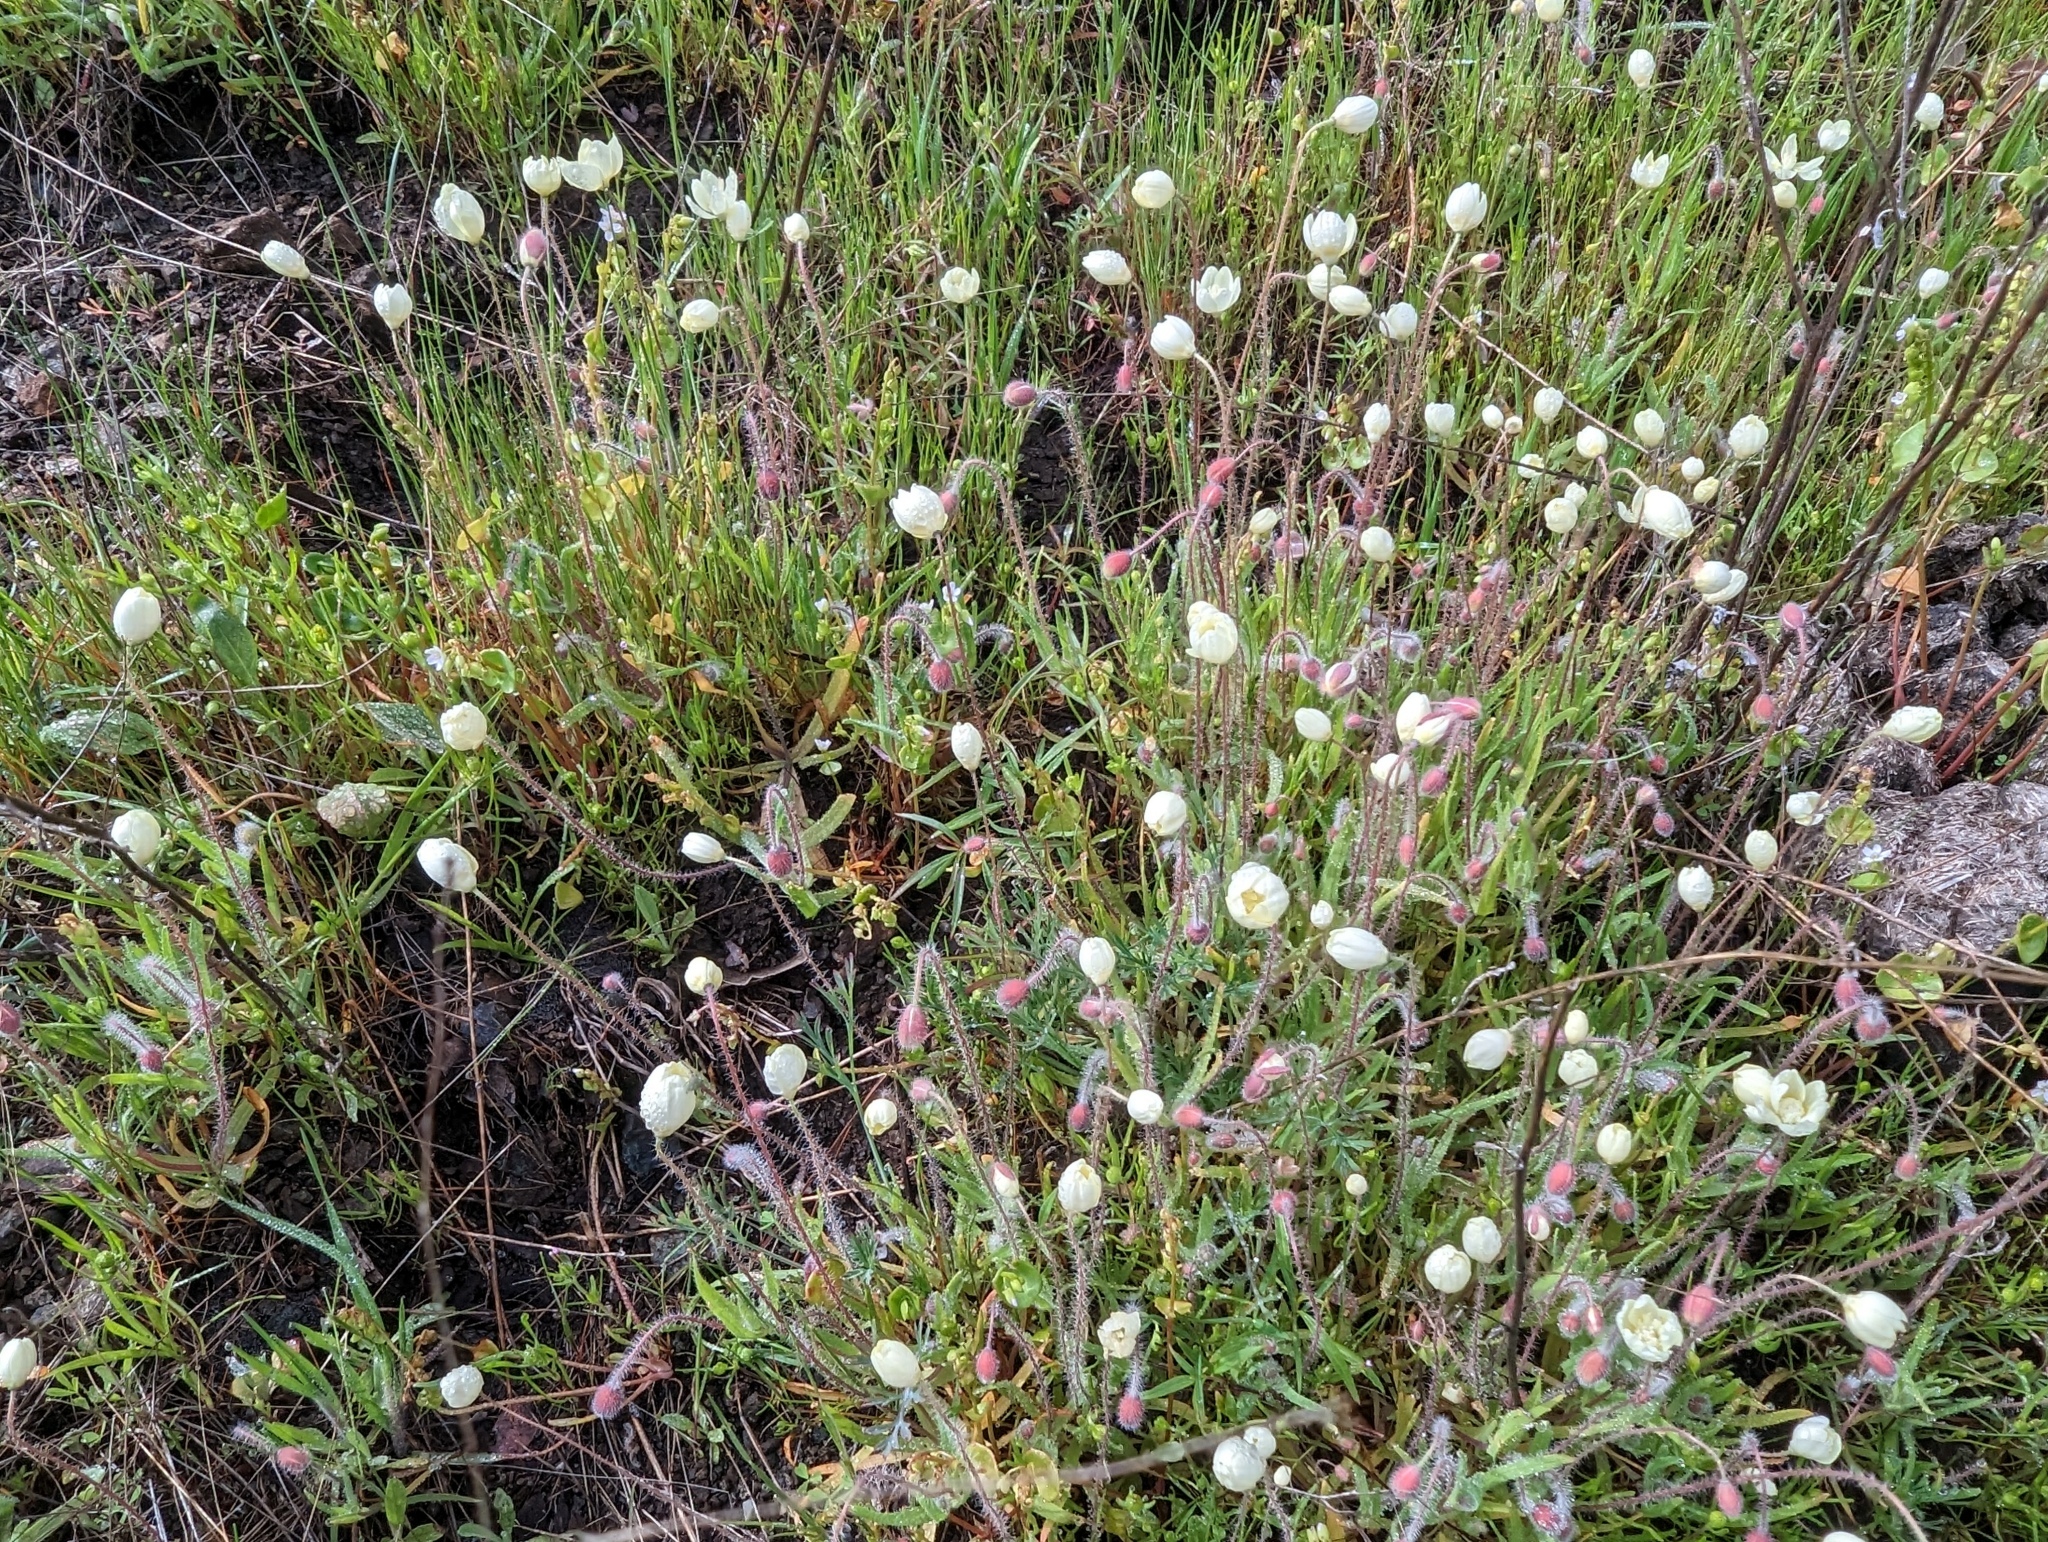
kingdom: Plantae
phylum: Tracheophyta
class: Magnoliopsida
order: Ranunculales
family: Papaveraceae
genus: Platystemon
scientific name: Platystemon californicus
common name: Cream-cups
